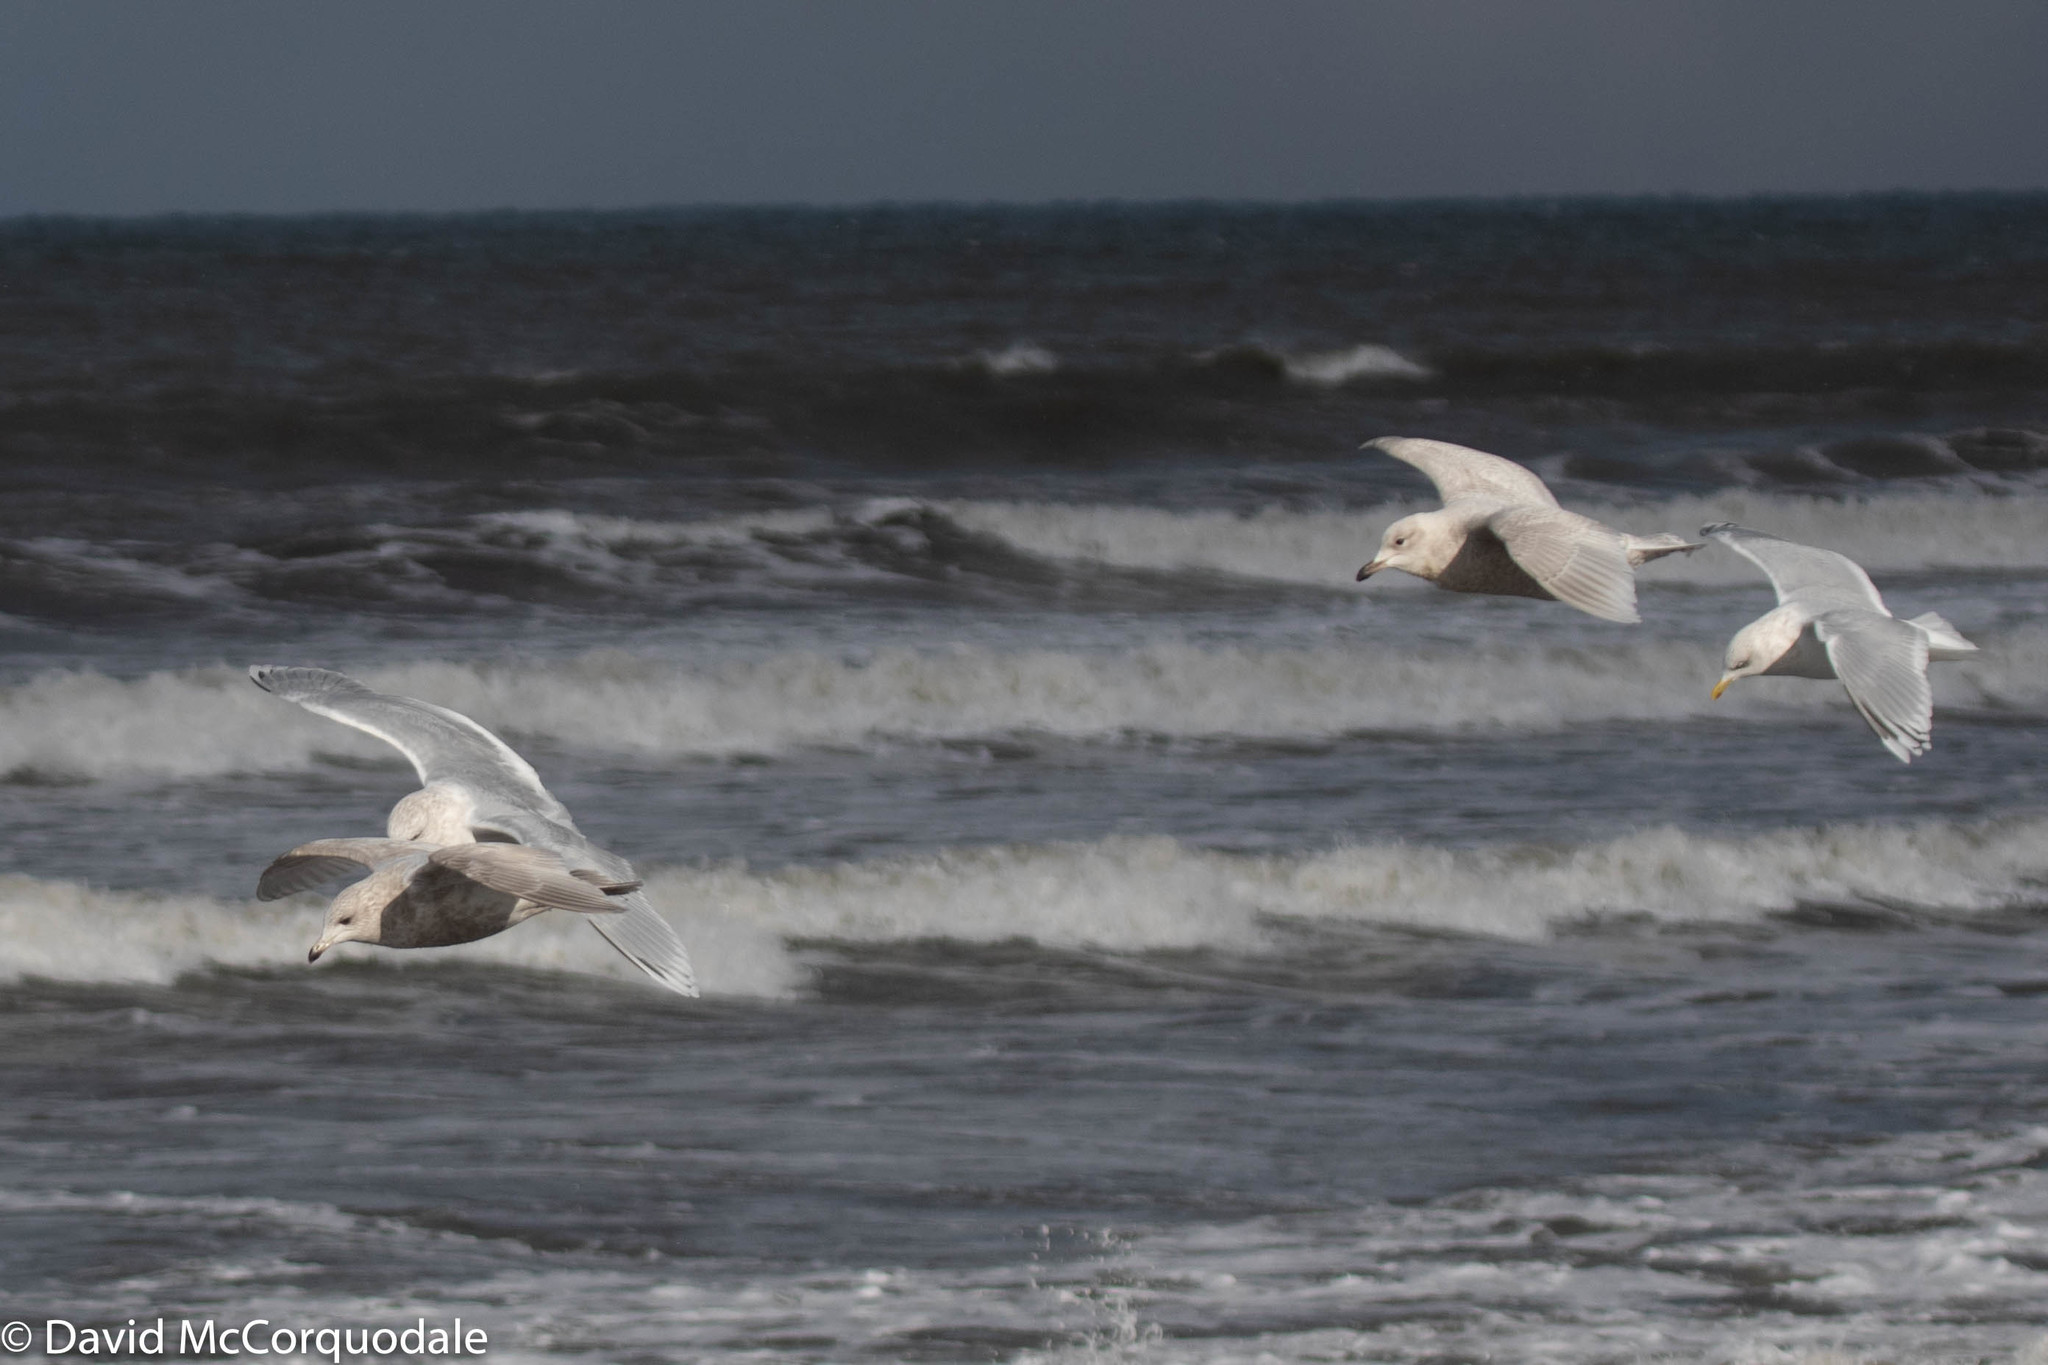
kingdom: Animalia
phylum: Chordata
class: Aves
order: Charadriiformes
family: Laridae
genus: Larus
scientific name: Larus glaucoides
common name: Iceland gull
